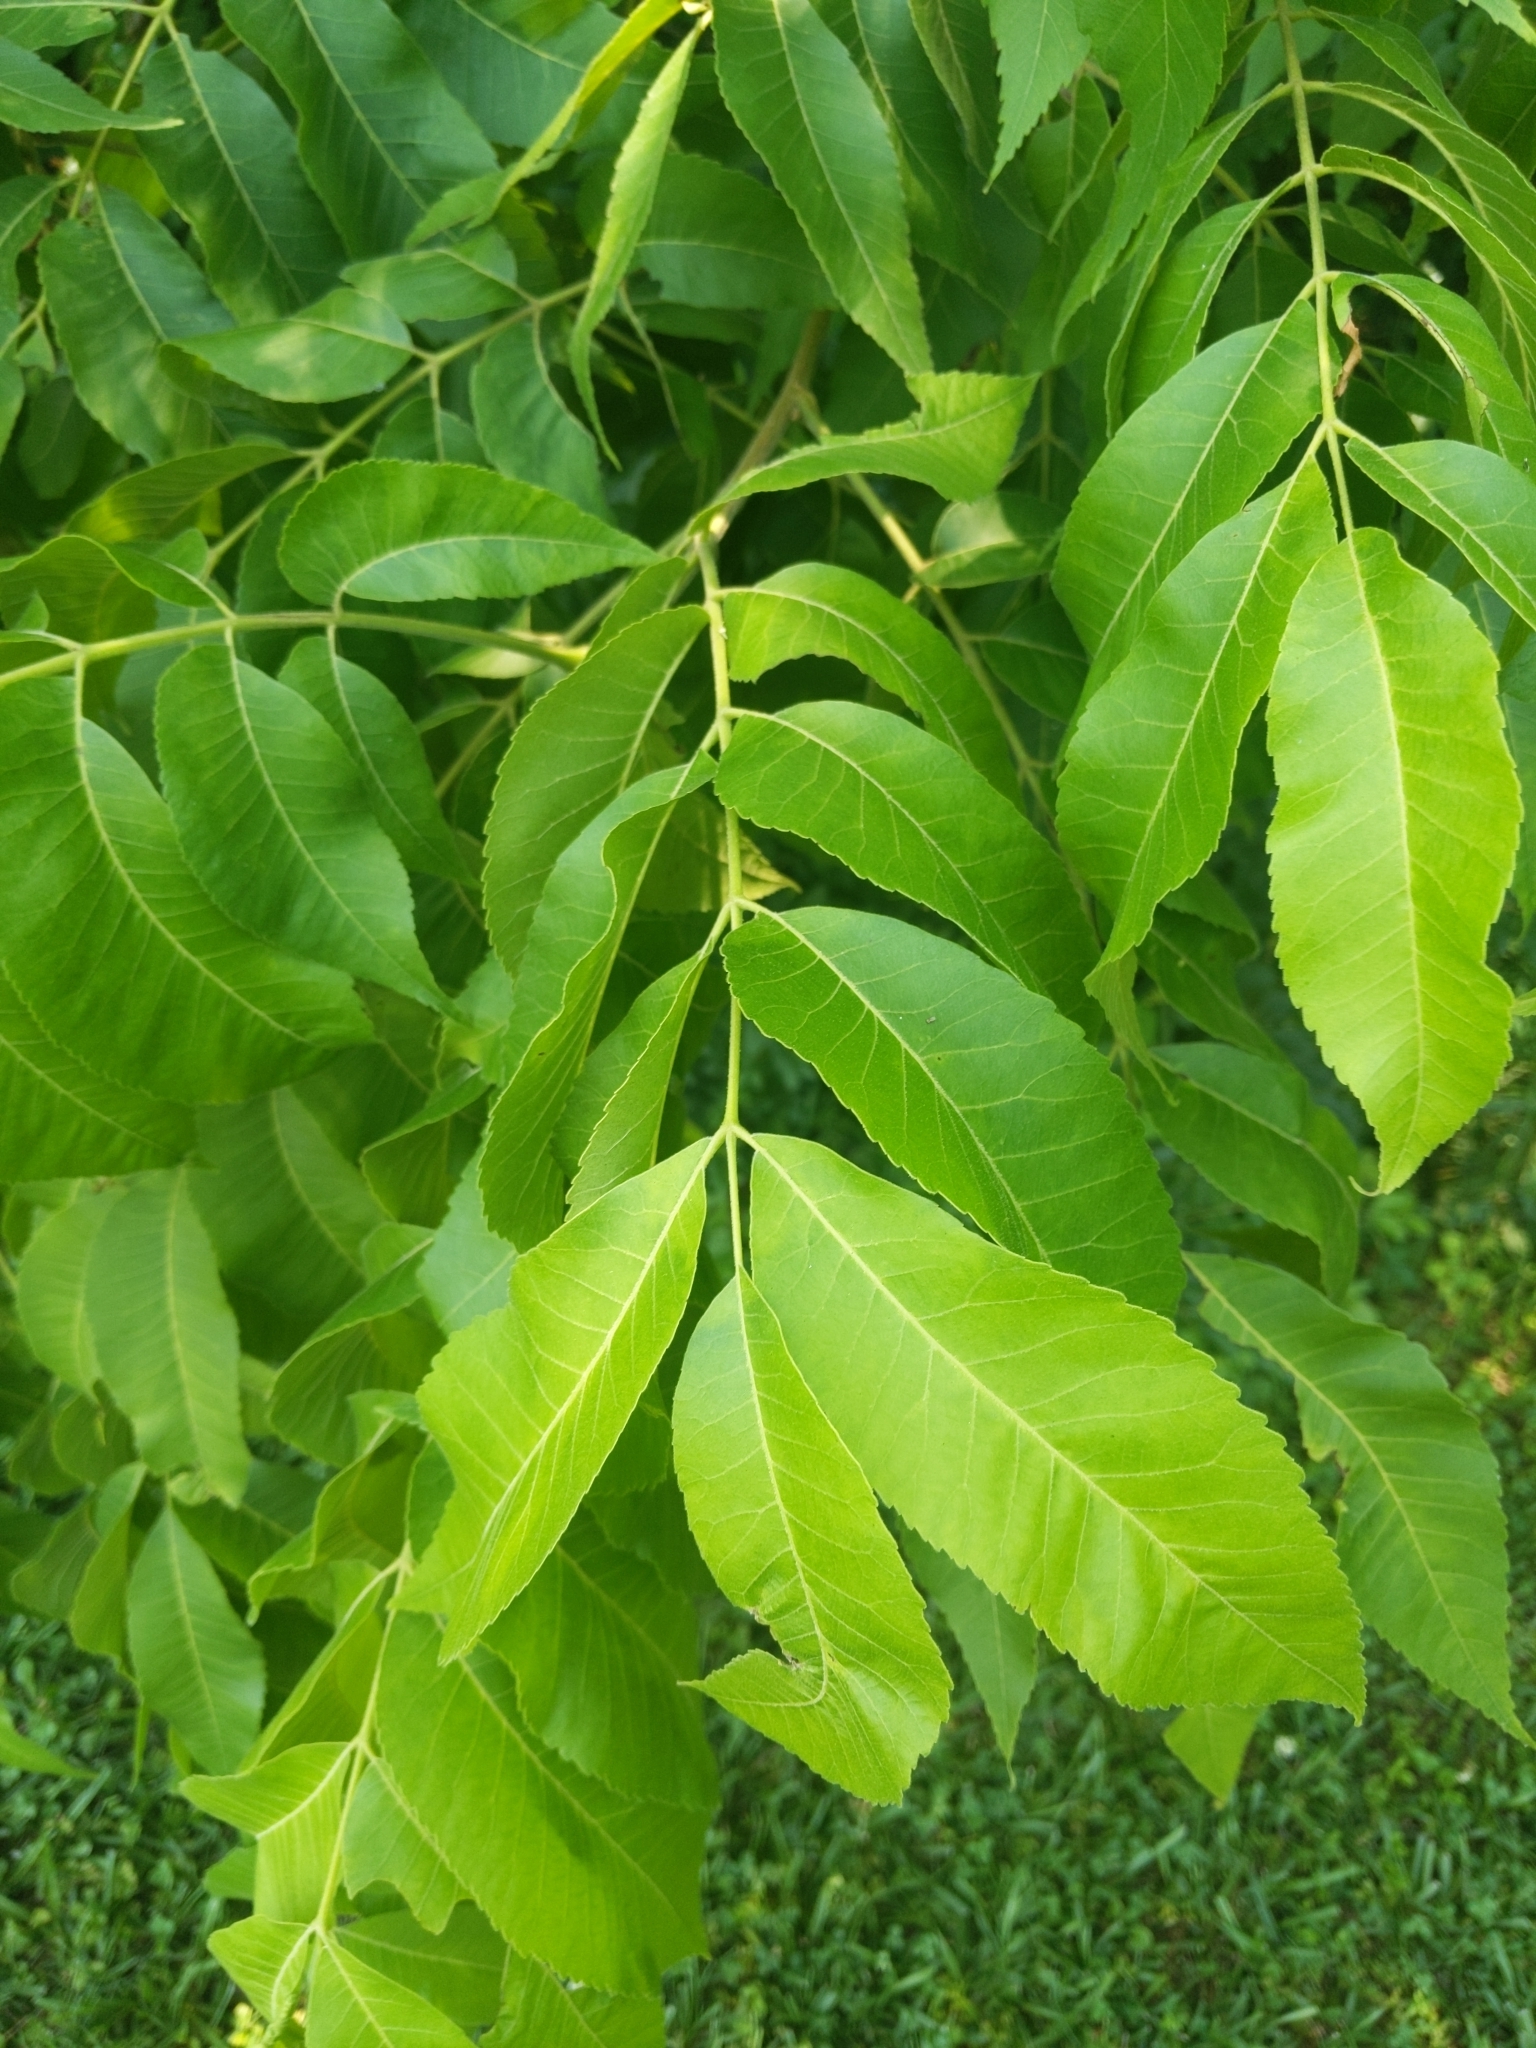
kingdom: Plantae
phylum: Tracheophyta
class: Magnoliopsida
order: Fagales
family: Juglandaceae
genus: Carya
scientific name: Carya illinoinensis
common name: Pecan
